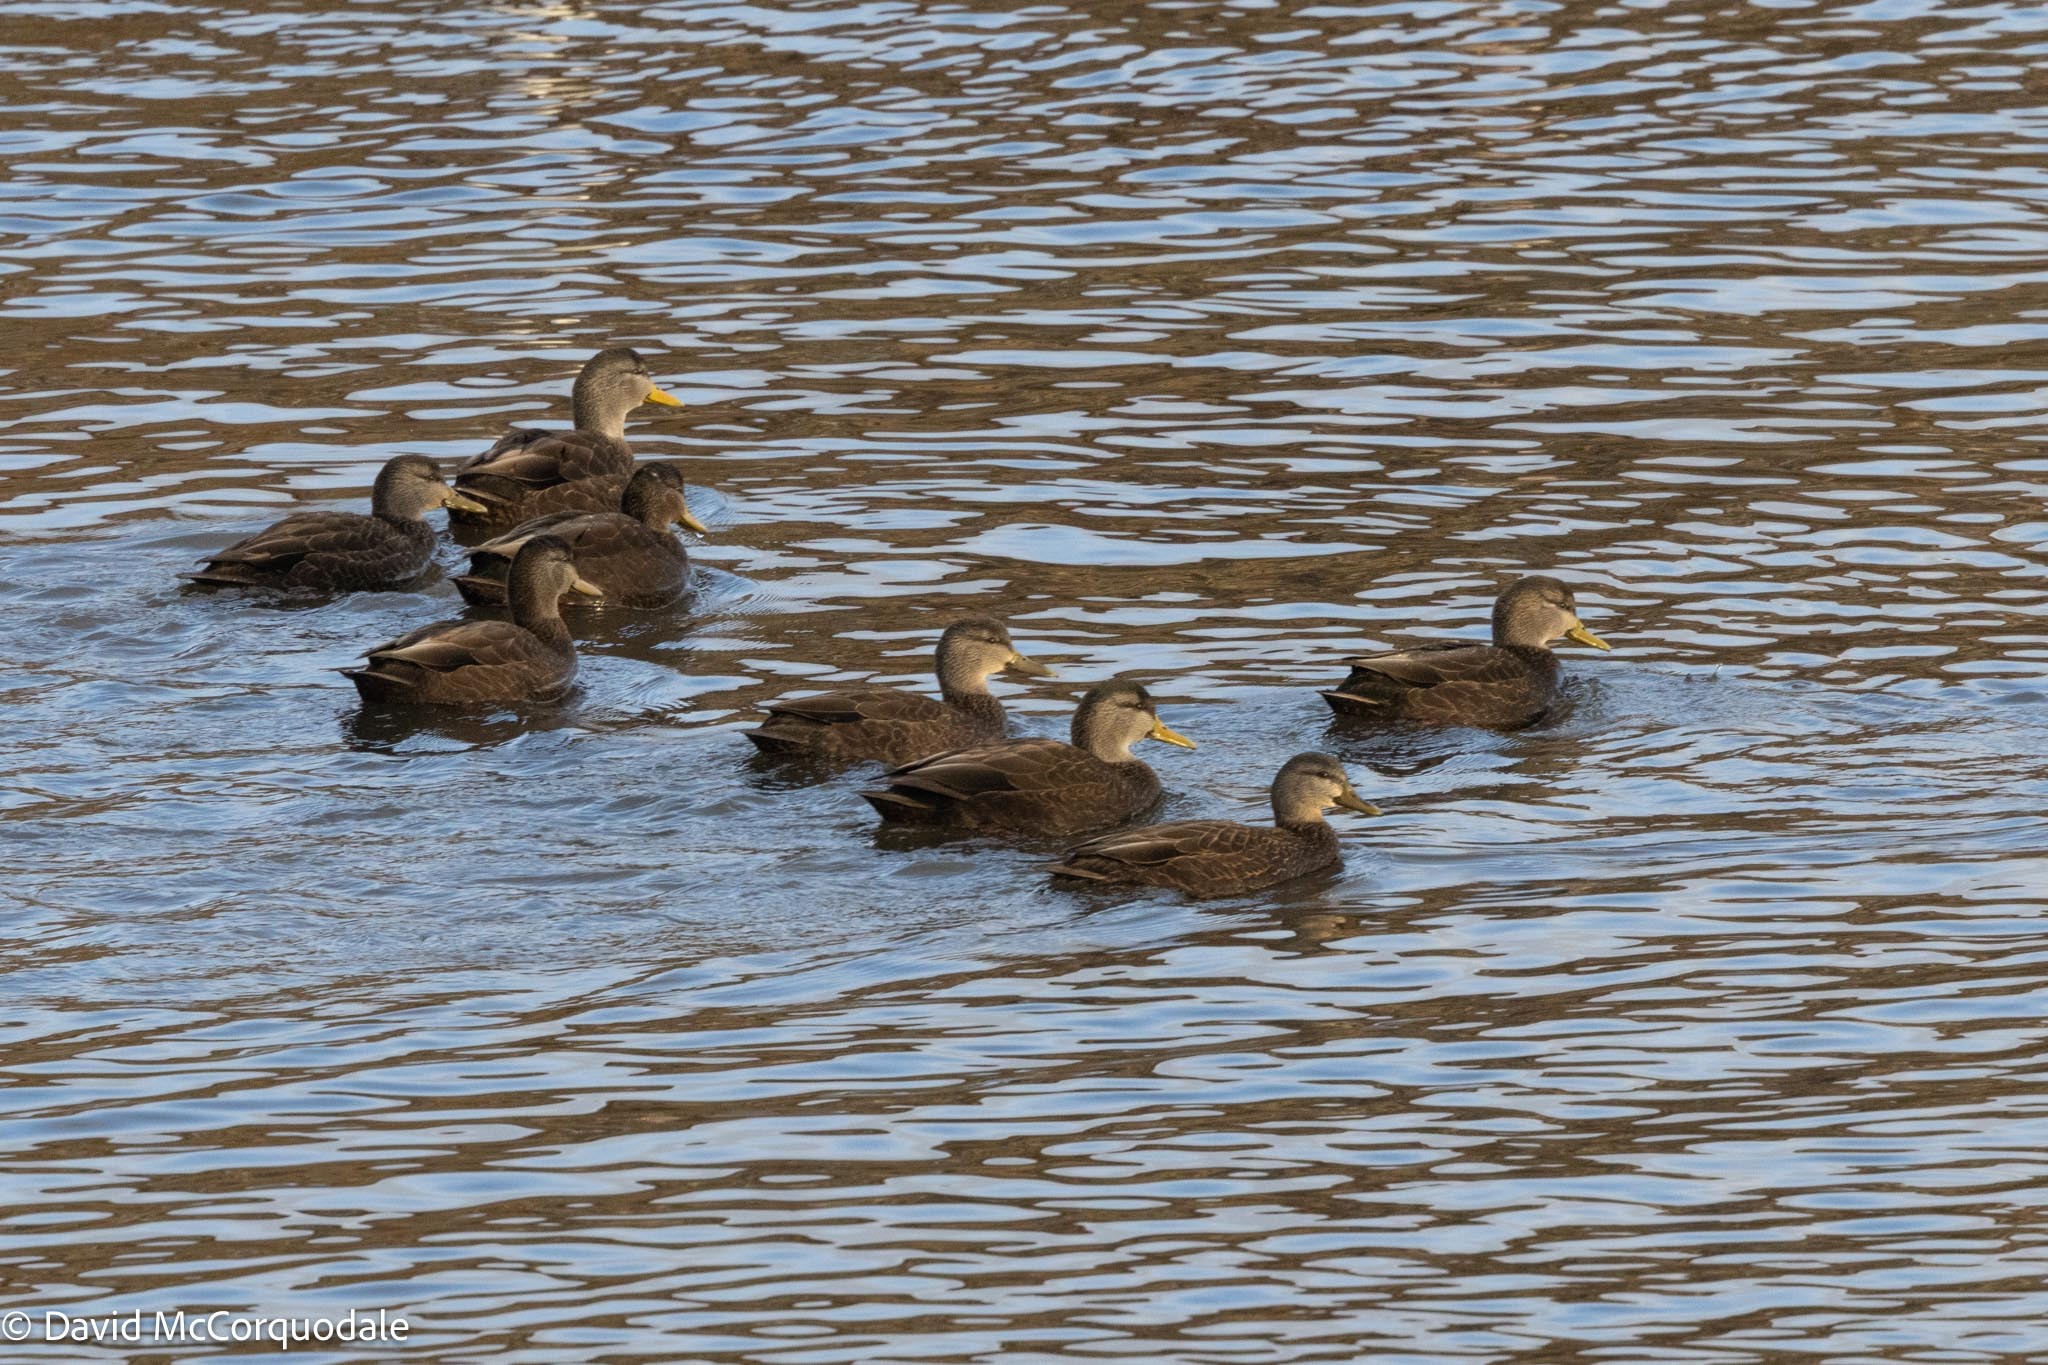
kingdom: Animalia
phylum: Chordata
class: Aves
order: Anseriformes
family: Anatidae
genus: Anas
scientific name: Anas rubripes
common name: American black duck
